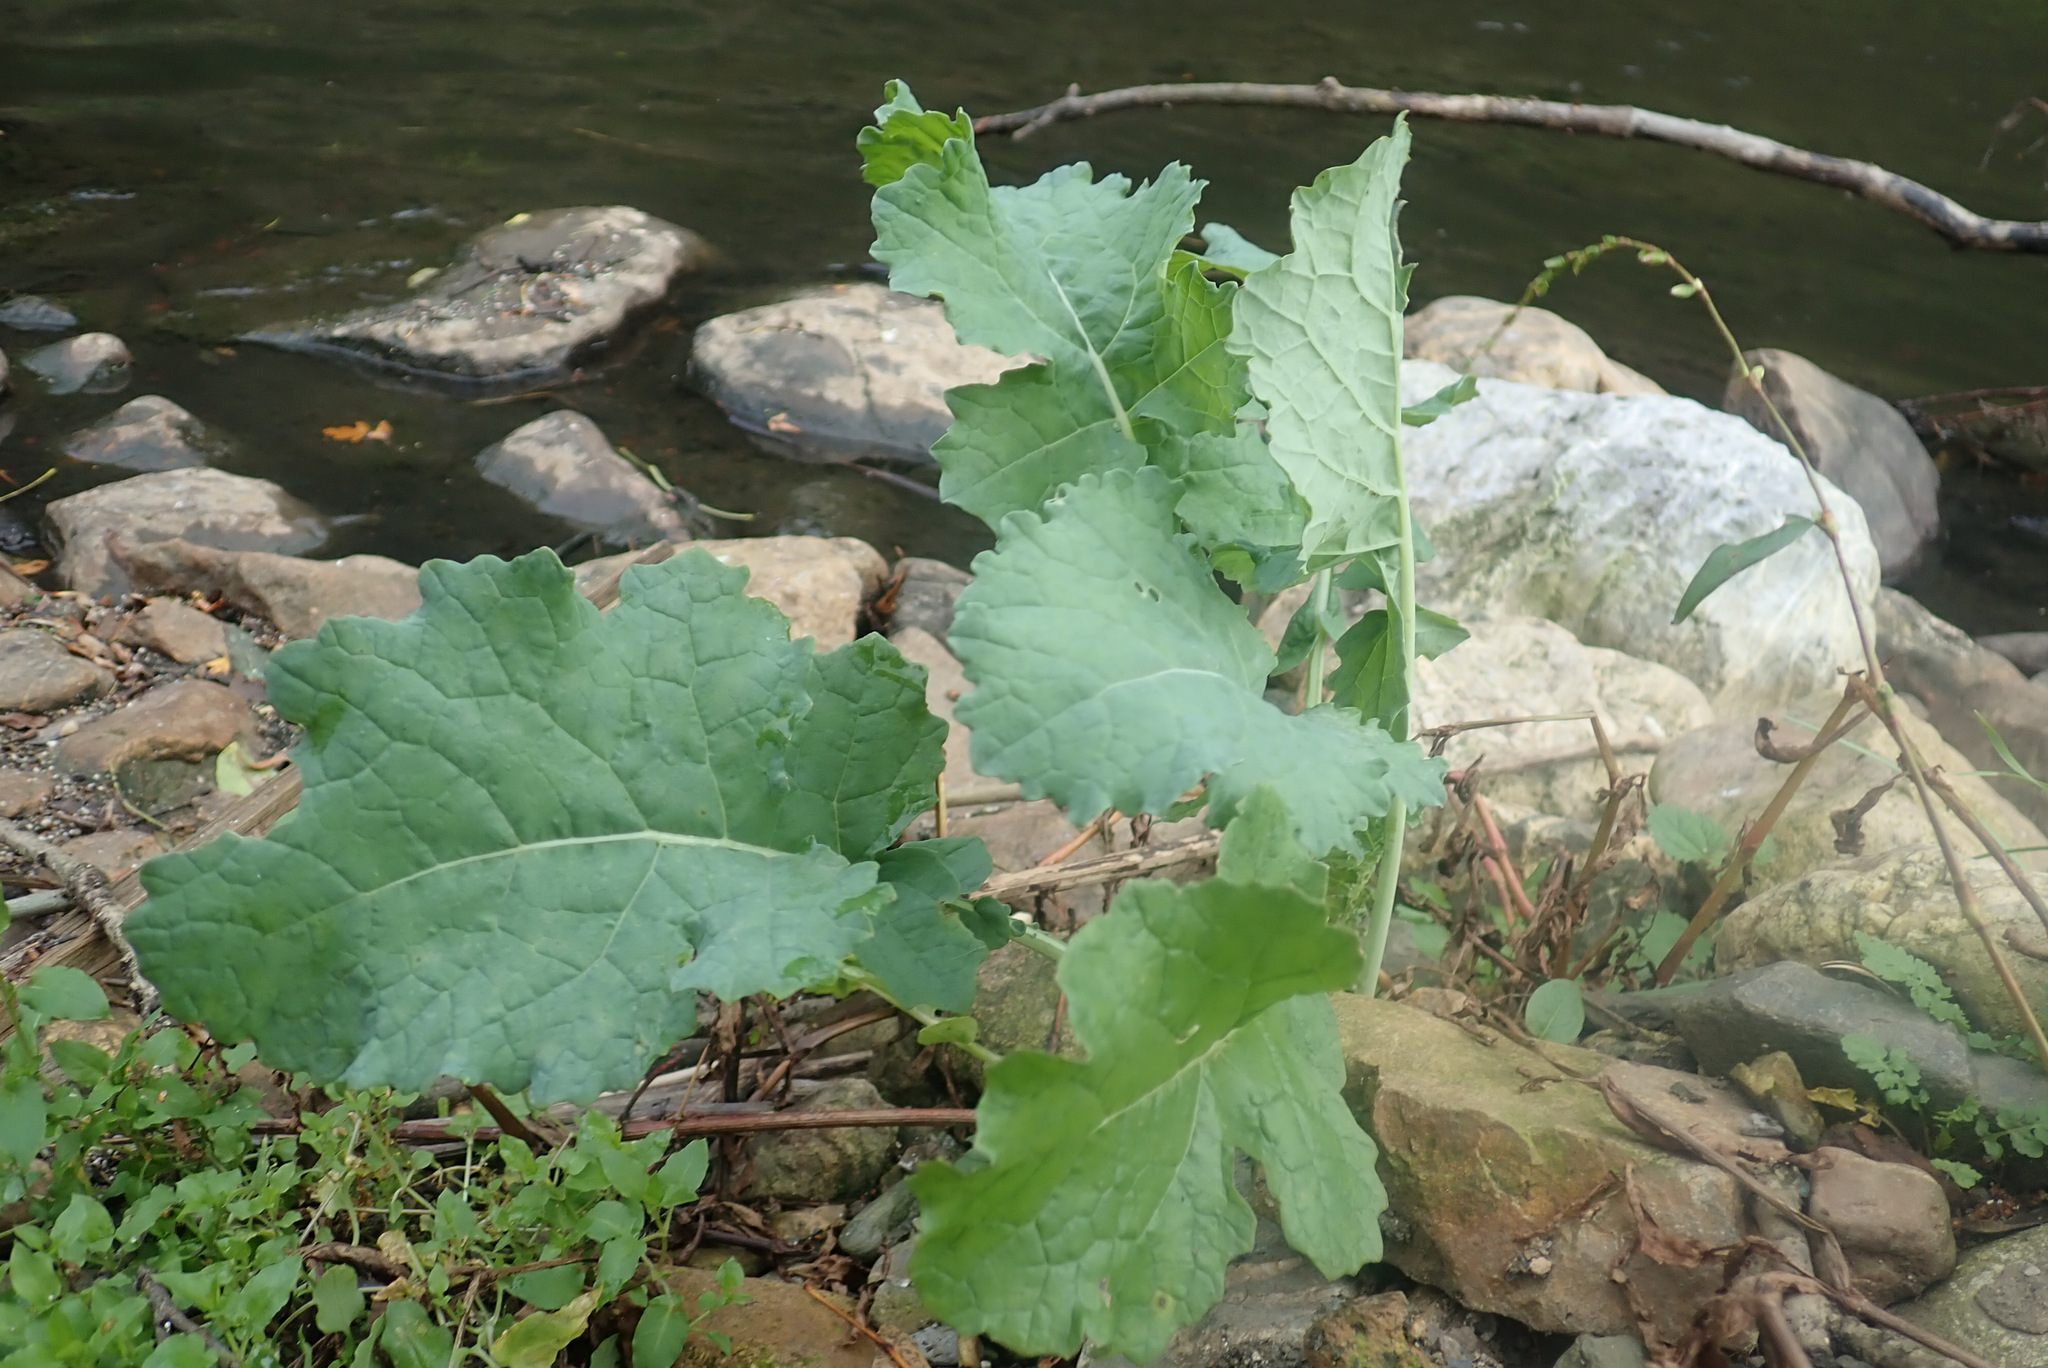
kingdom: Plantae
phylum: Tracheophyta
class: Magnoliopsida
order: Brassicales
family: Brassicaceae
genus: Brassica
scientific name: Brassica oleracea
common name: Cabbage
